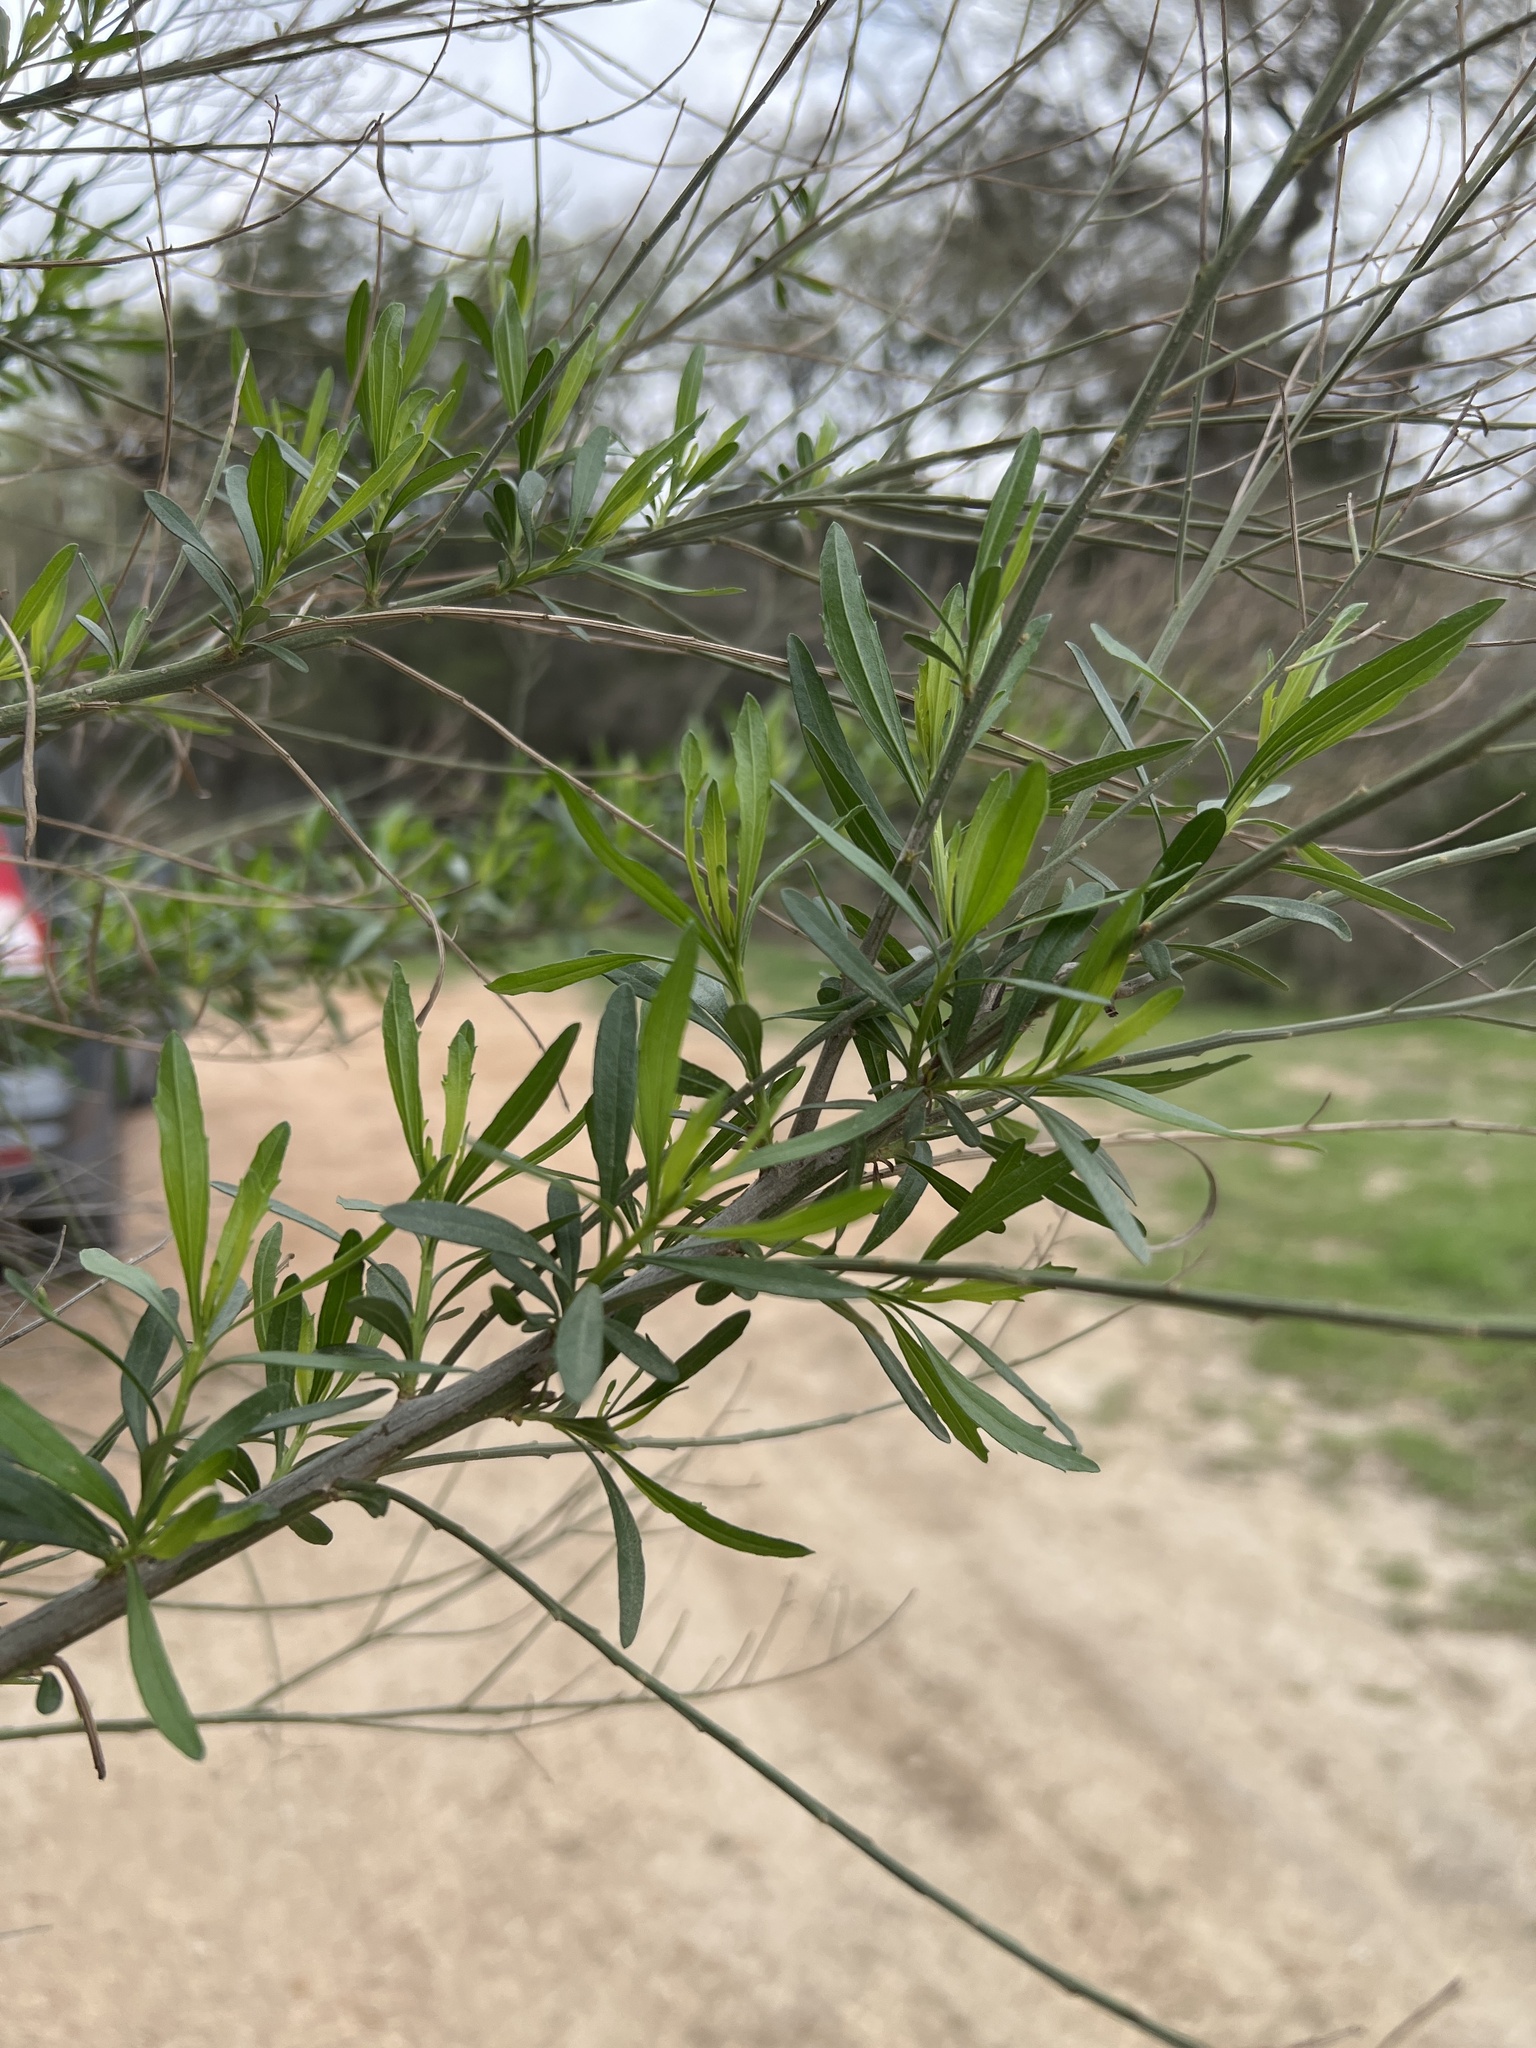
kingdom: Plantae
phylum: Tracheophyta
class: Magnoliopsida
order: Asterales
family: Asteraceae
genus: Baccharis
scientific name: Baccharis neglecta
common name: Roosevelt-weed
